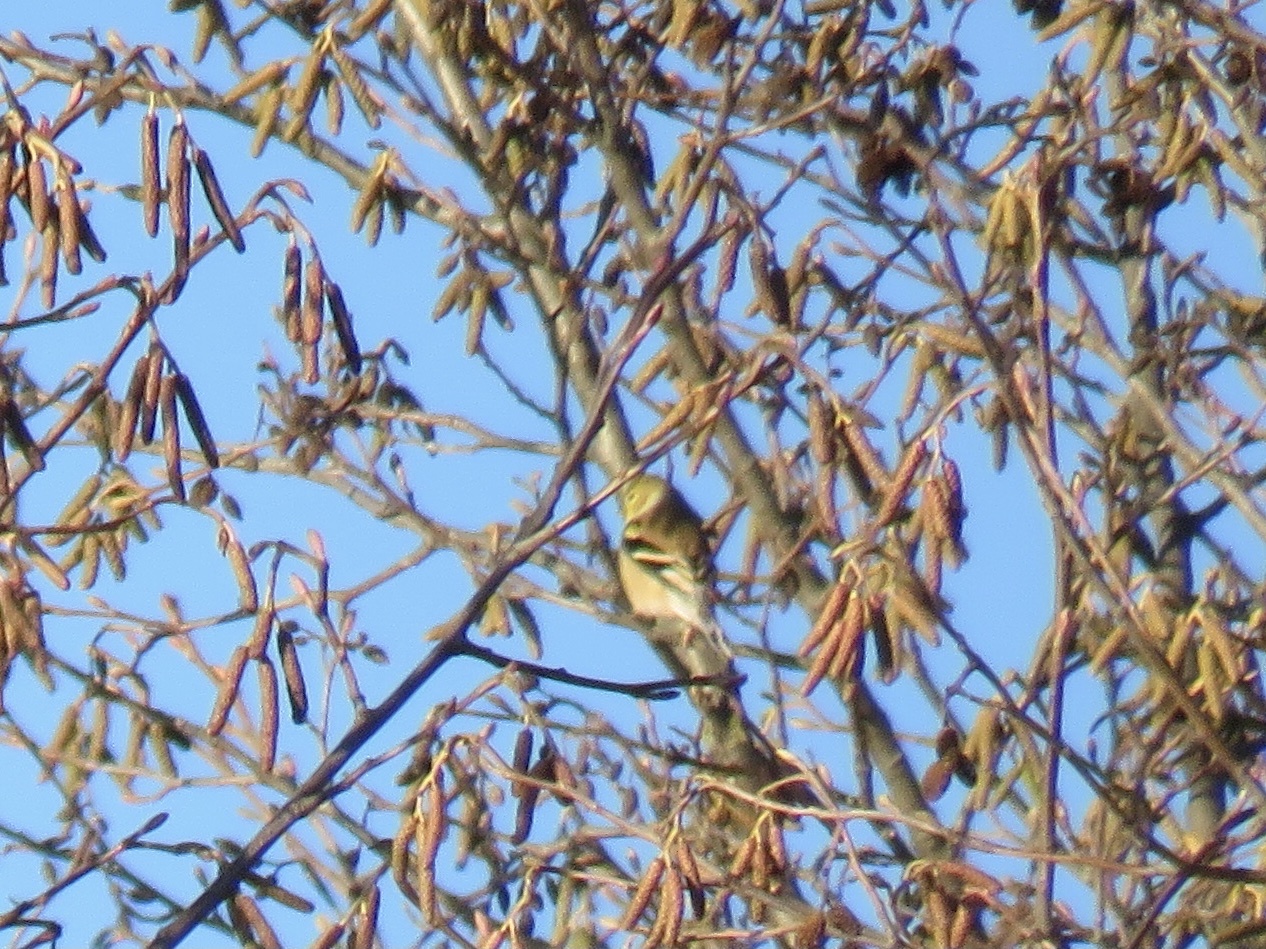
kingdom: Animalia
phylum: Chordata
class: Aves
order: Passeriformes
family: Fringillidae
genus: Spinus
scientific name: Spinus tristis
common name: American goldfinch
